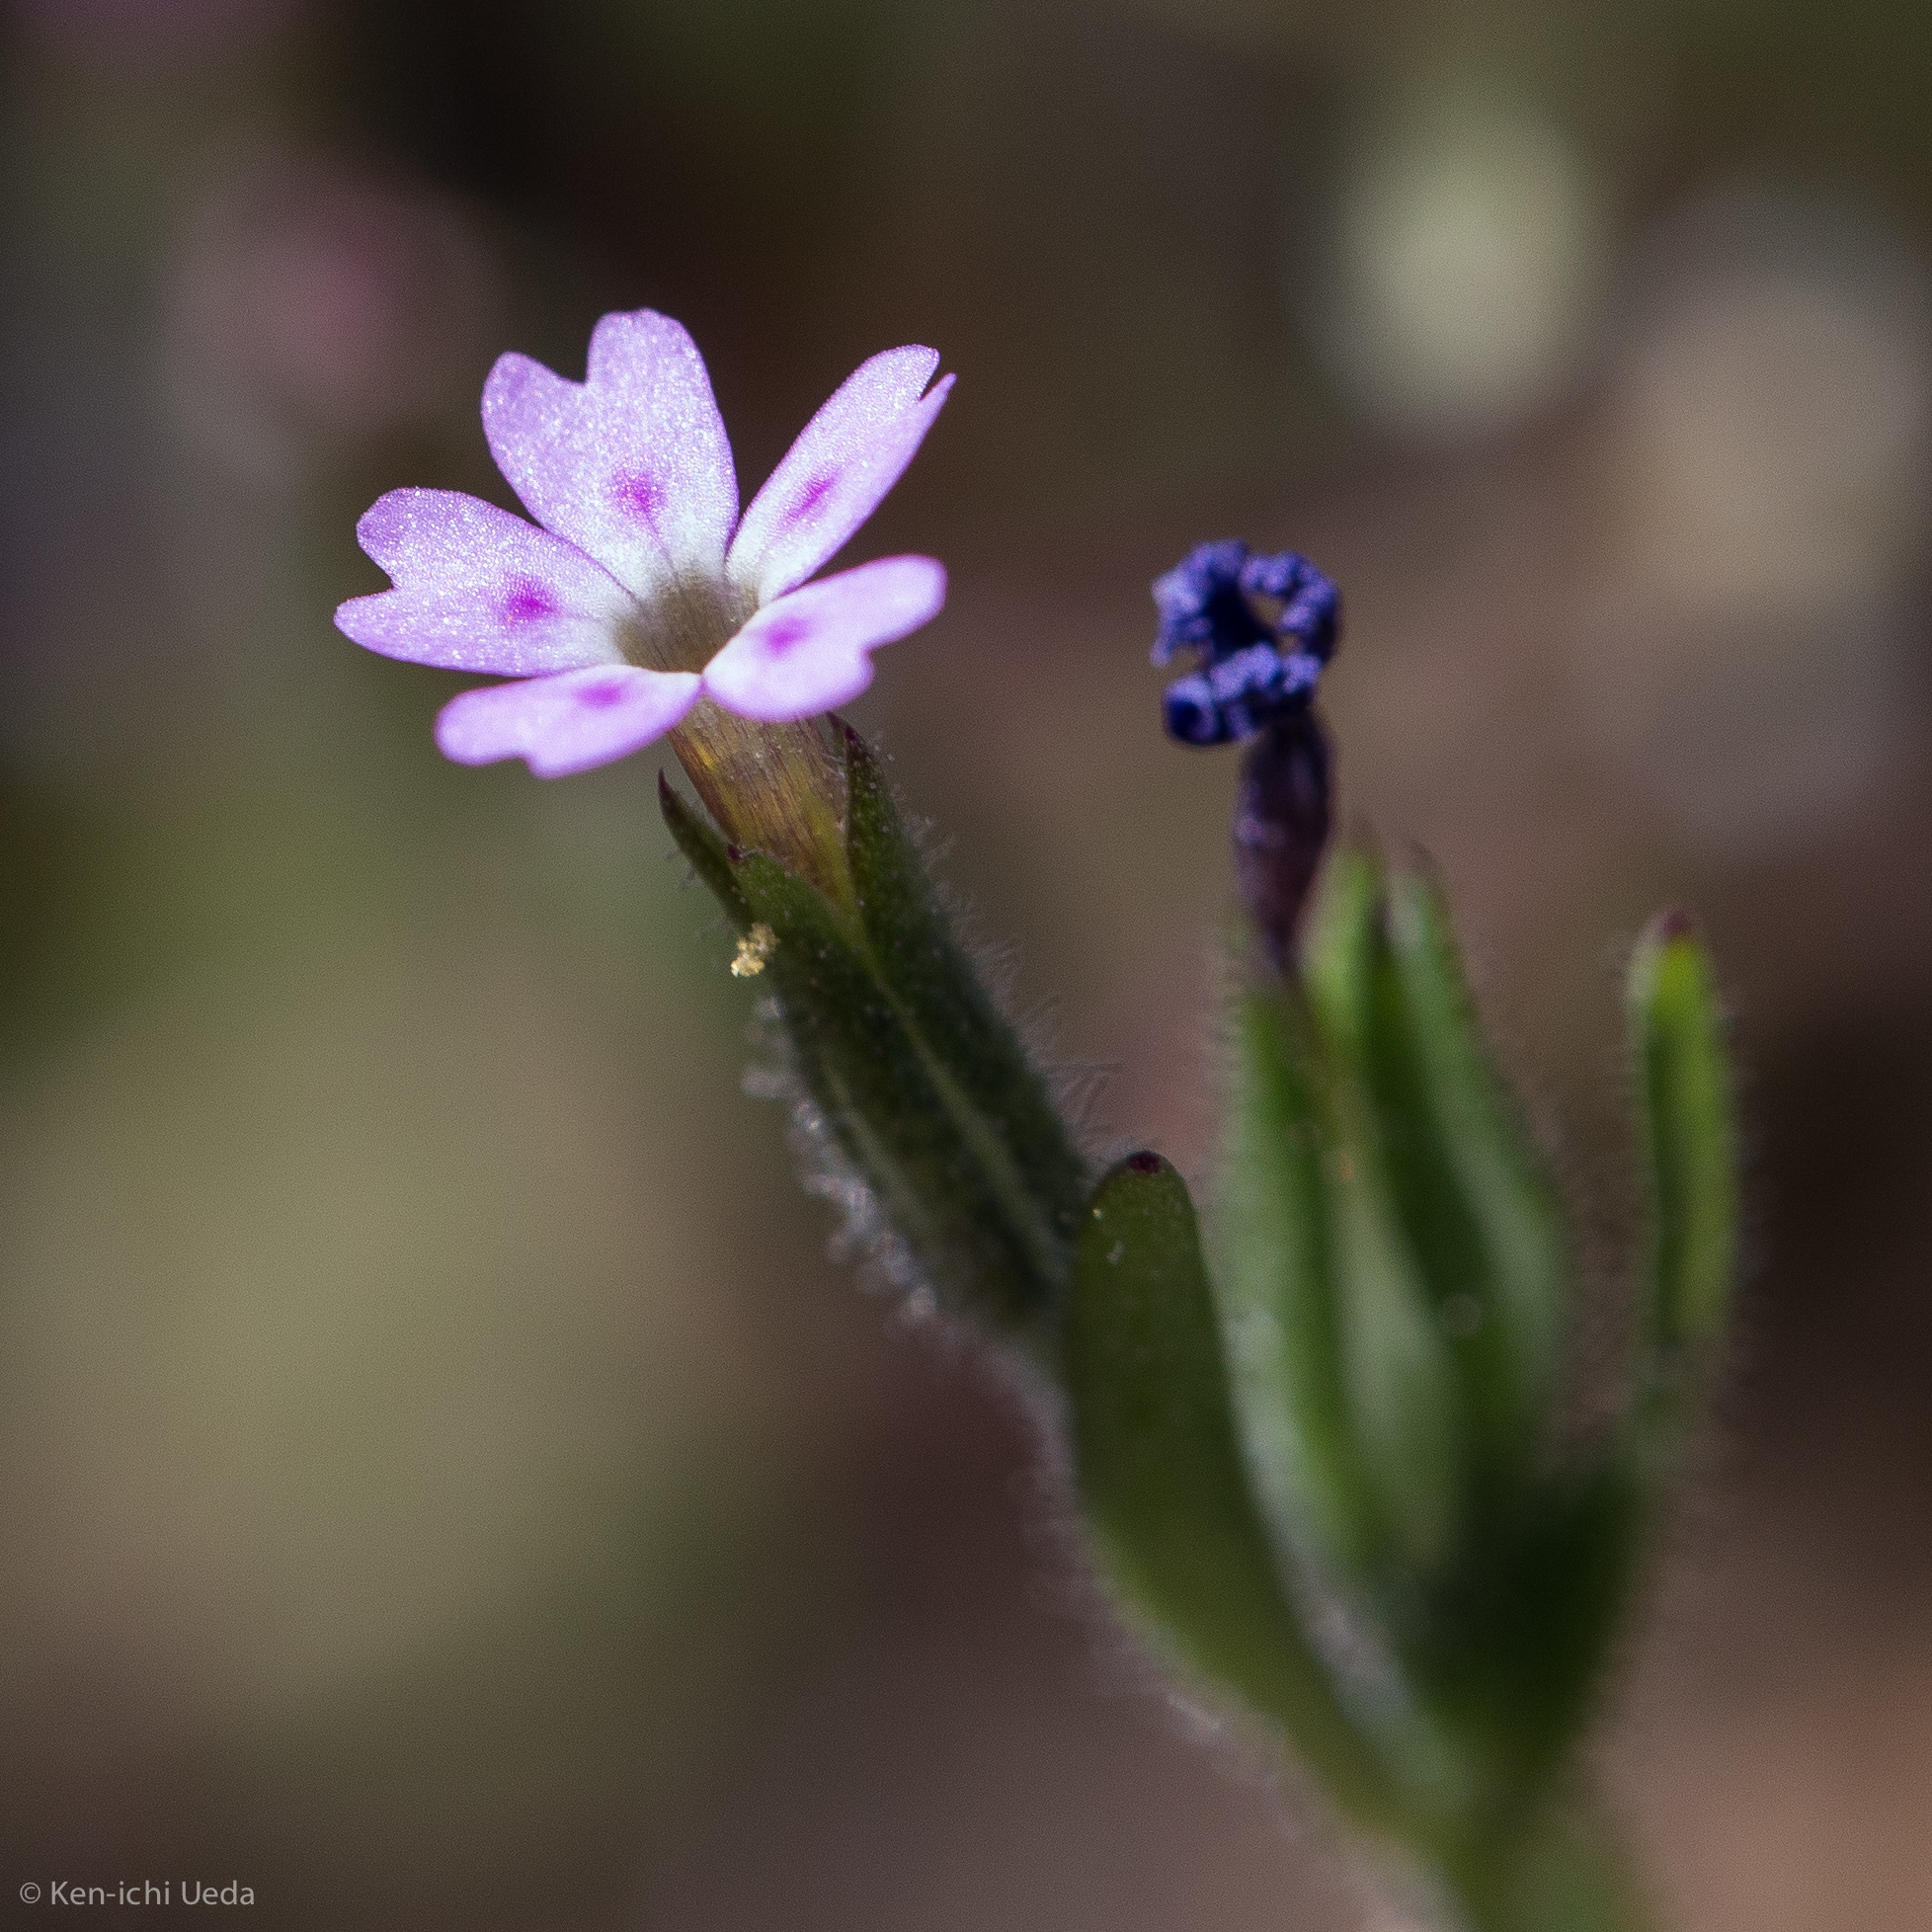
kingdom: Plantae
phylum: Tracheophyta
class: Magnoliopsida
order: Ericales
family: Polemoniaceae
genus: Phlox
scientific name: Phlox gracilis
